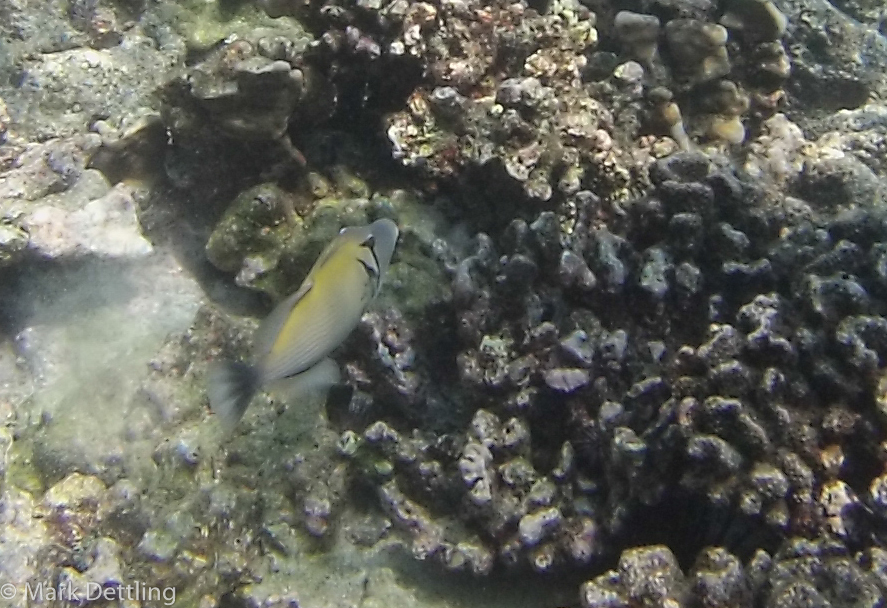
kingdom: Animalia
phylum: Chordata
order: Tetraodontiformes
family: Balistidae
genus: Sufflamen
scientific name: Sufflamen bursa
